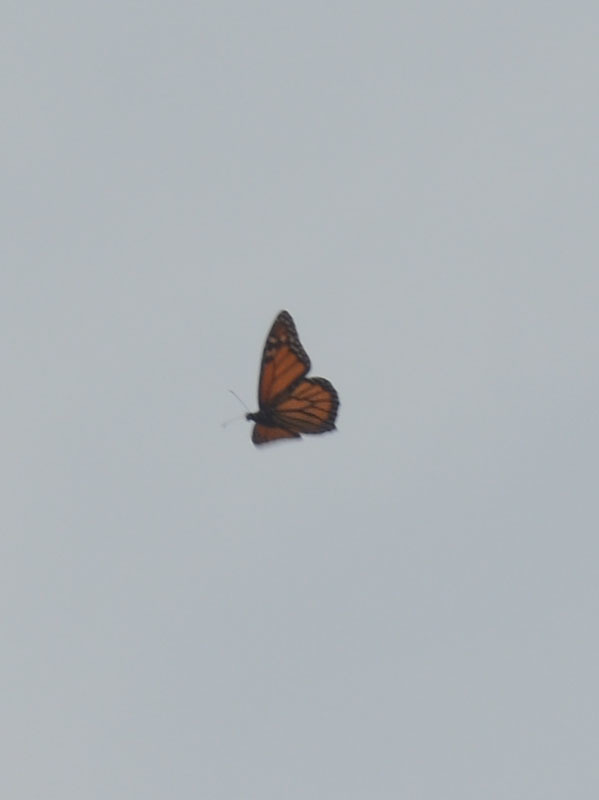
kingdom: Animalia
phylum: Arthropoda
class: Insecta
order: Lepidoptera
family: Nymphalidae
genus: Danaus
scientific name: Danaus plexippus
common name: Monarch
